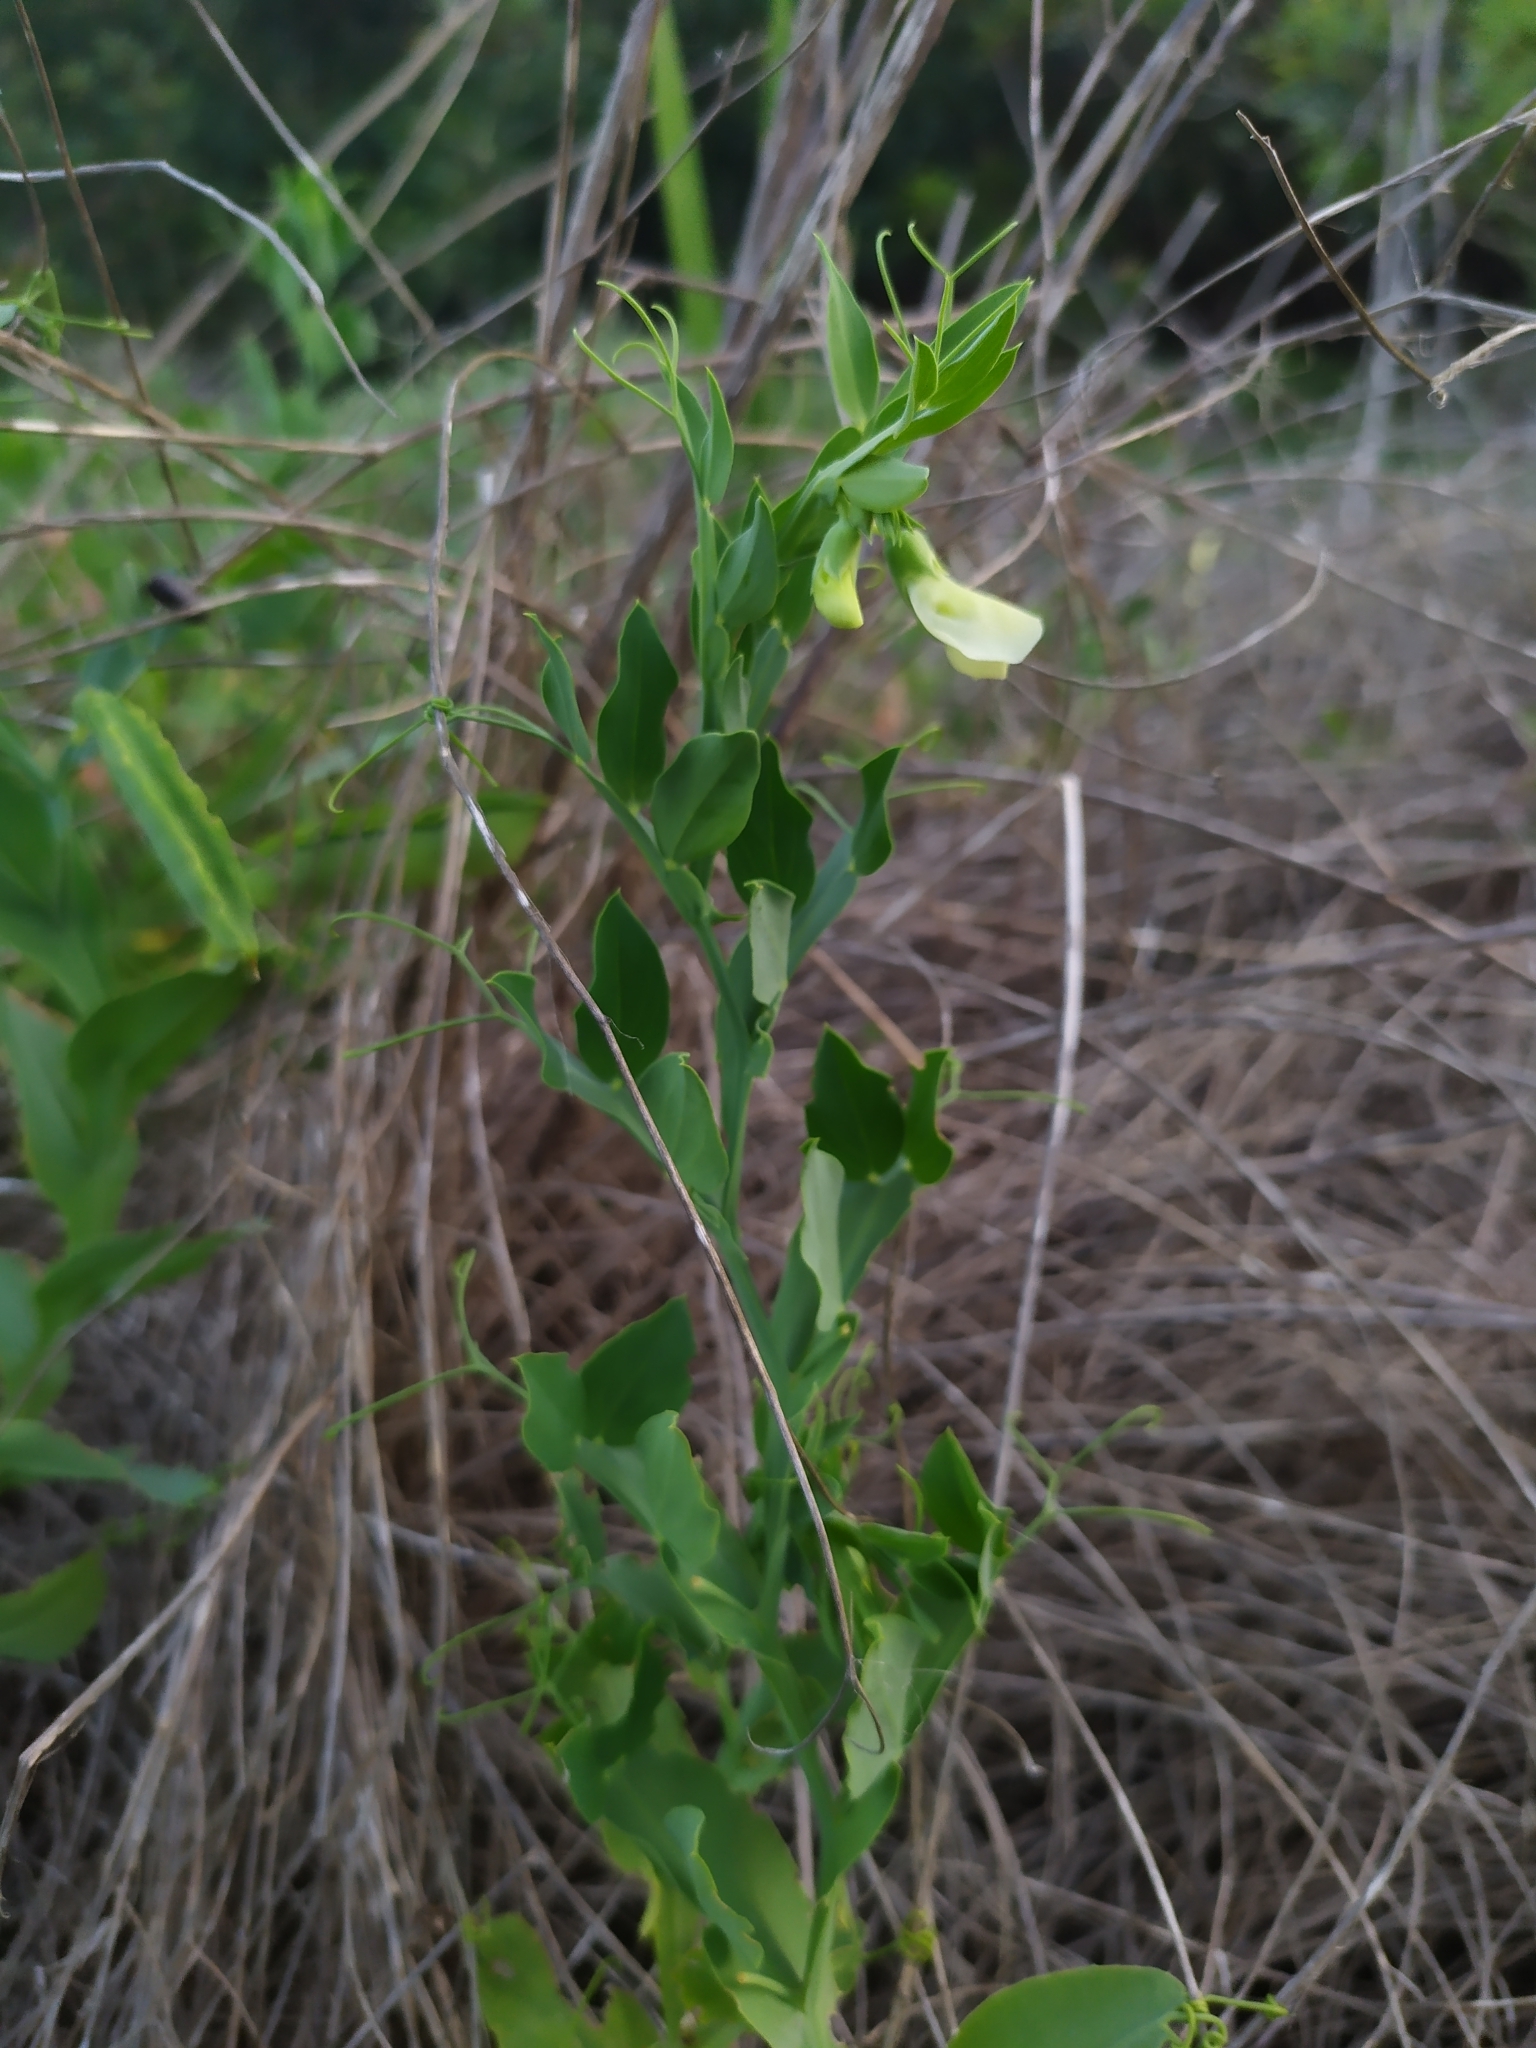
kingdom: Plantae
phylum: Tracheophyta
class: Magnoliopsida
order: Fabales
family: Fabaceae
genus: Lathyrus
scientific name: Lathyrus ochrus
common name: Winged vetchling
